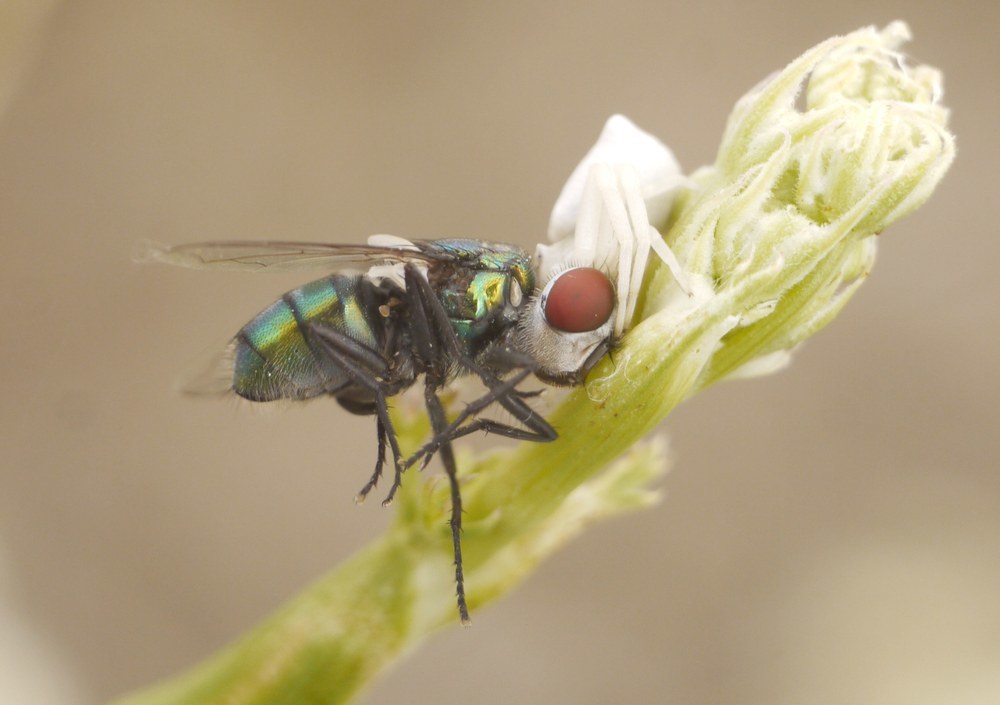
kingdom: Animalia
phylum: Arthropoda
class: Insecta
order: Diptera
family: Calliphoridae
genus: Chrysomya
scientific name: Chrysomya albiceps
